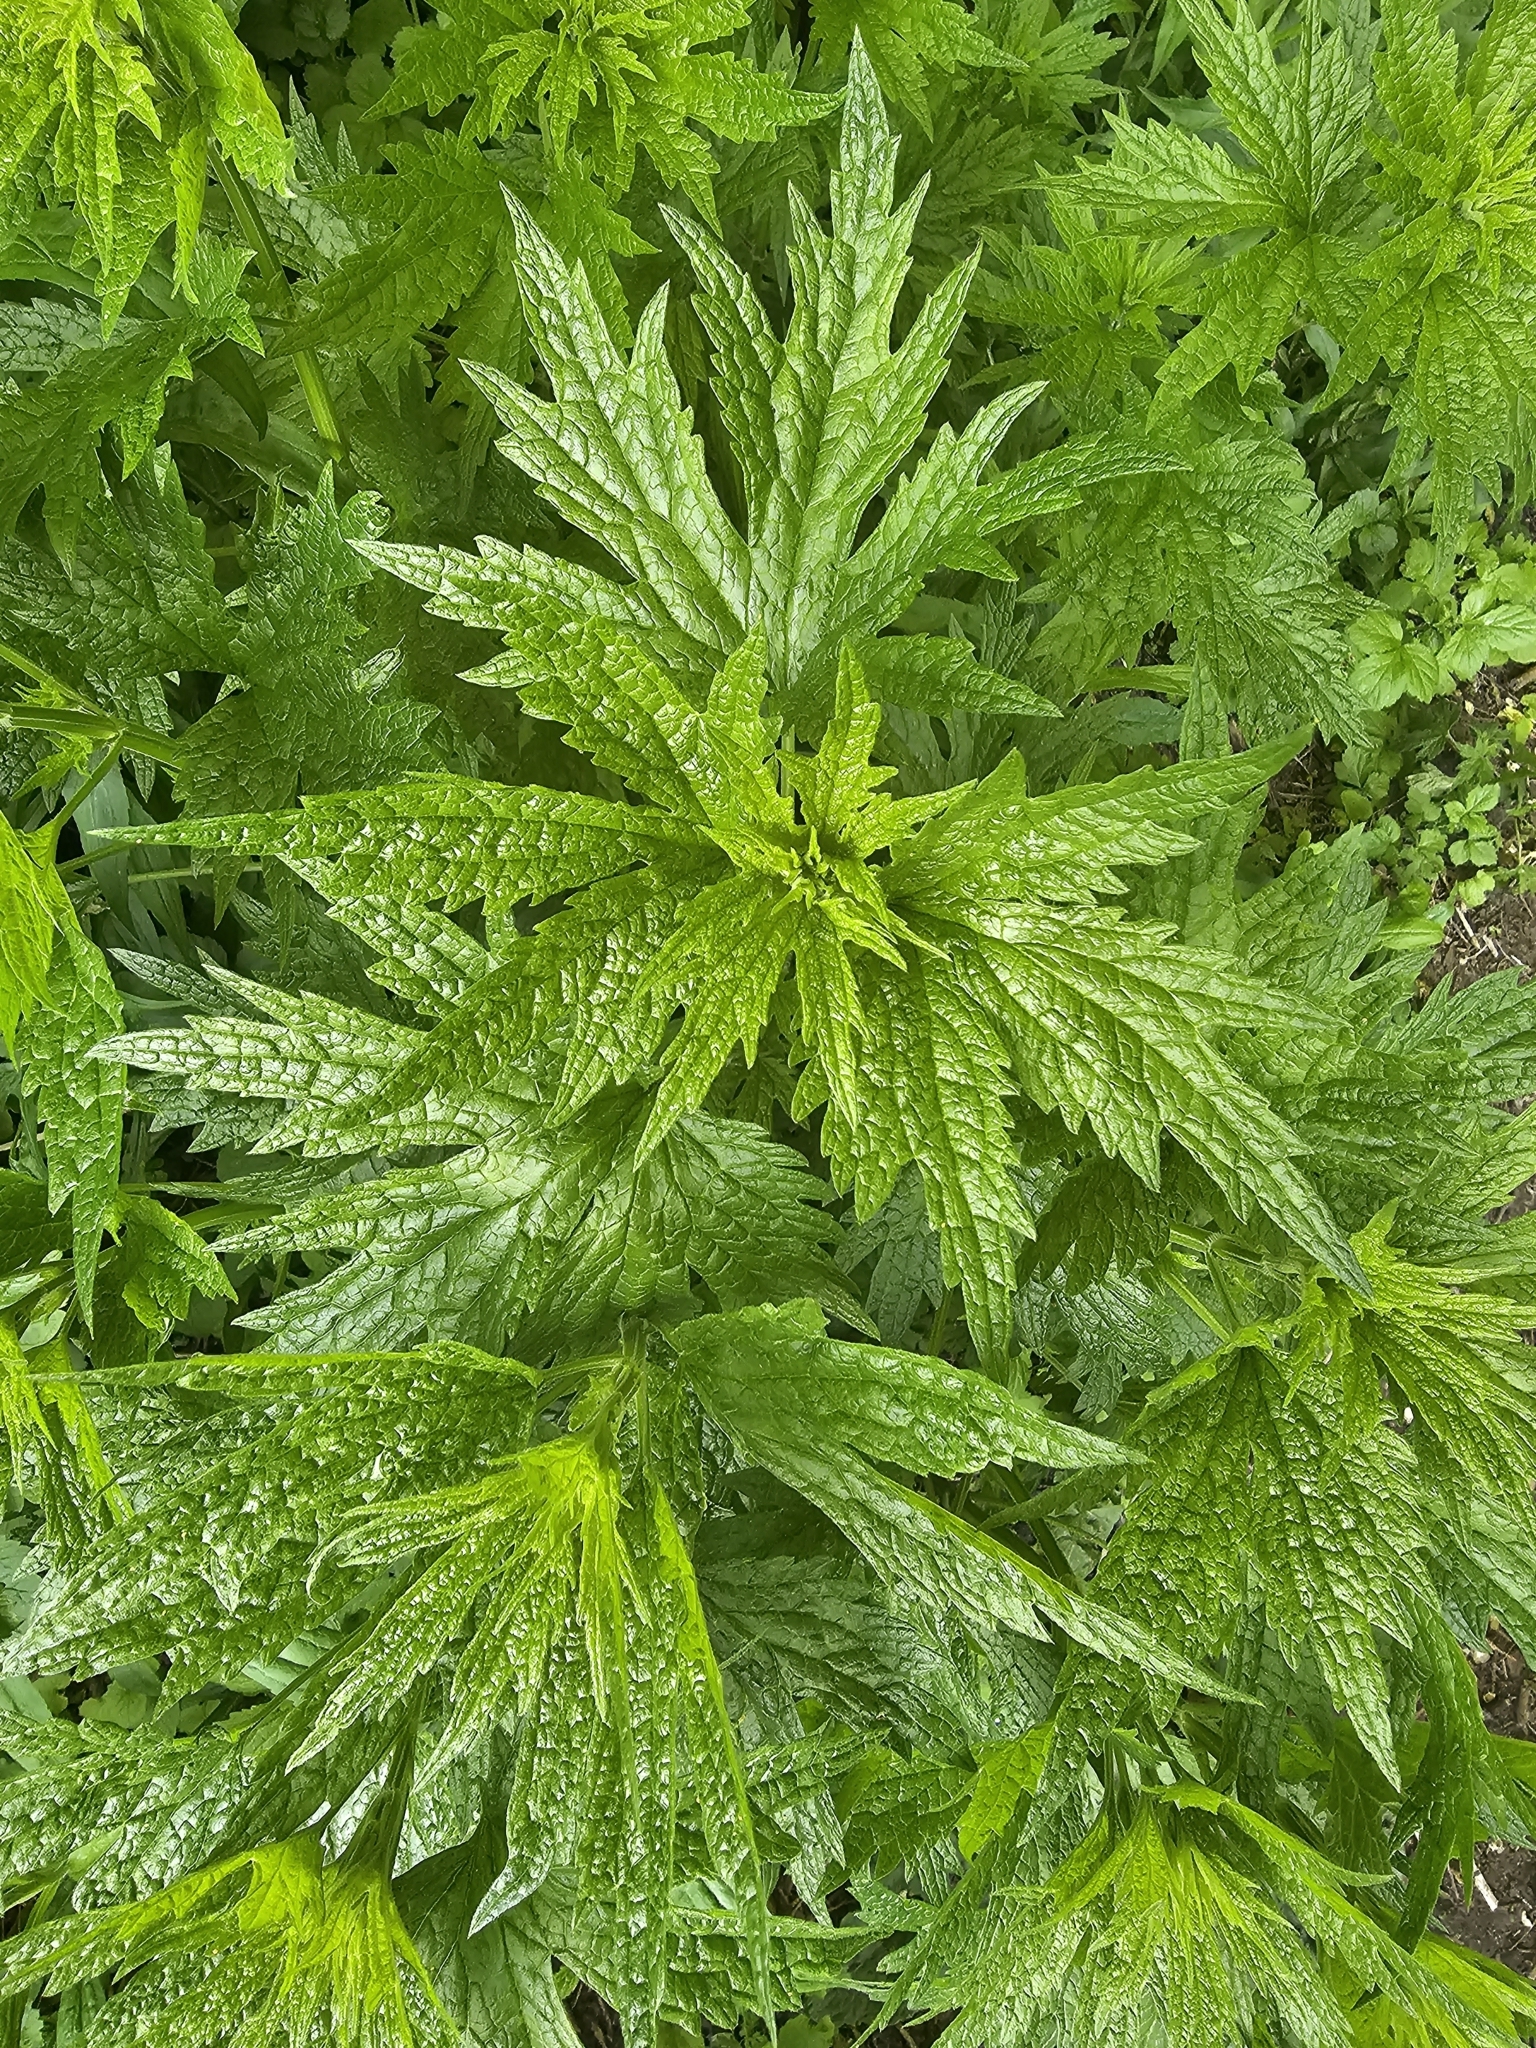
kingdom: Plantae
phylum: Tracheophyta
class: Magnoliopsida
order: Lamiales
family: Lamiaceae
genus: Leonurus
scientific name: Leonurus cardiaca
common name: Motherwort
